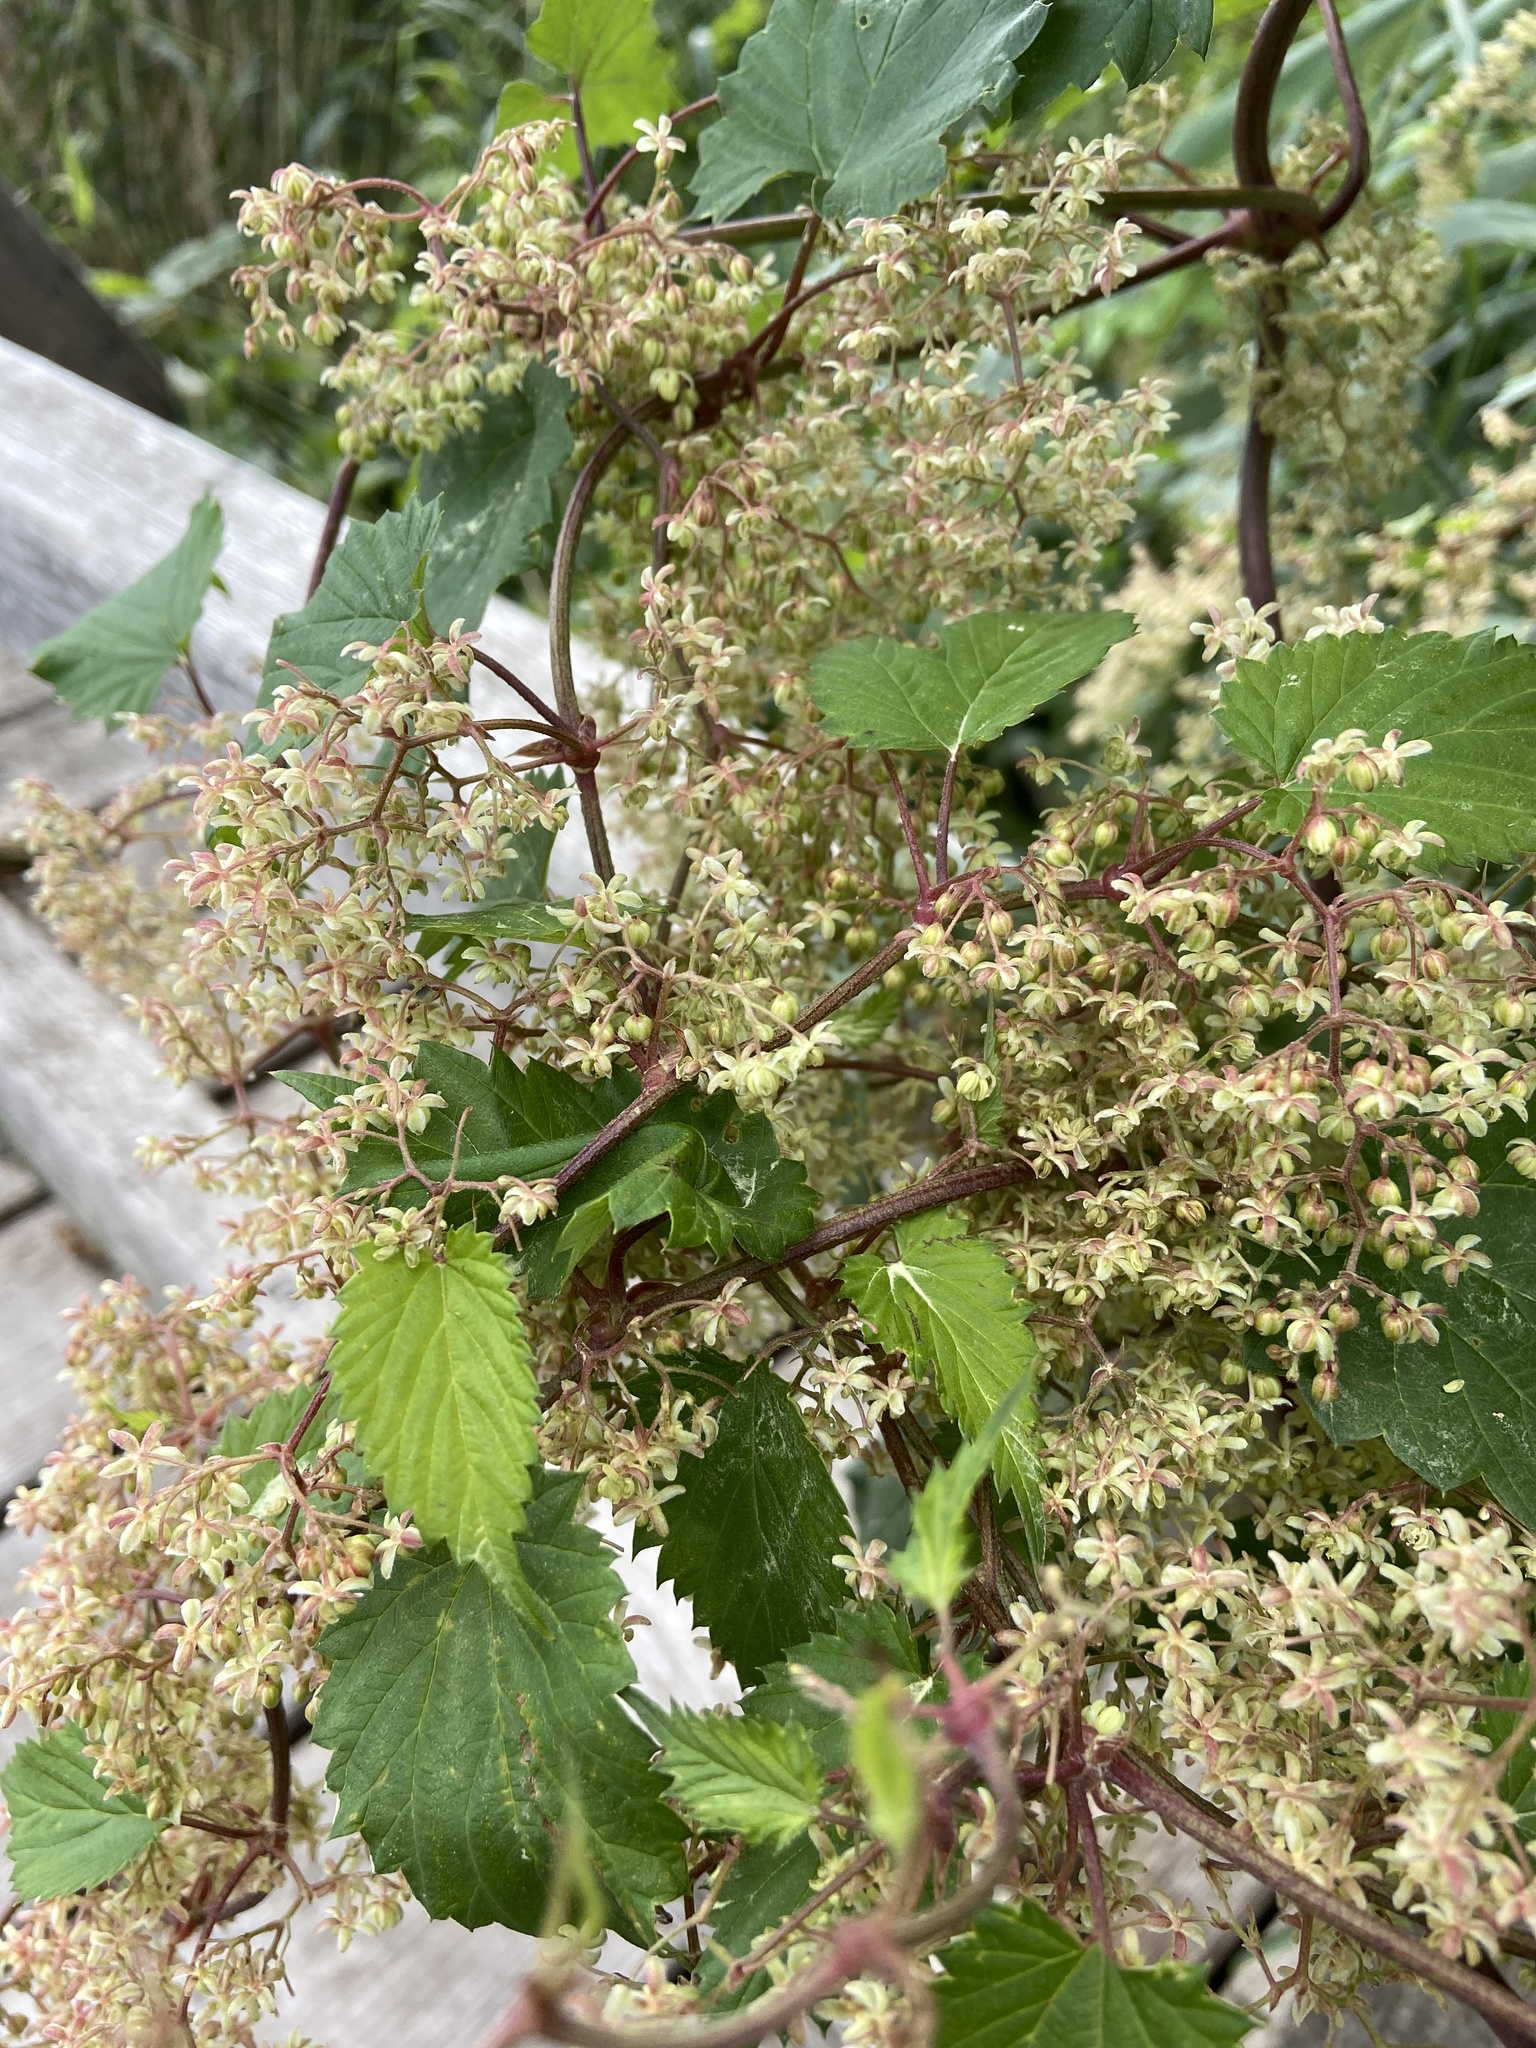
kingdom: Plantae
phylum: Tracheophyta
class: Magnoliopsida
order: Rosales
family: Cannabaceae
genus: Humulus
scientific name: Humulus lupulus
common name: Hop
